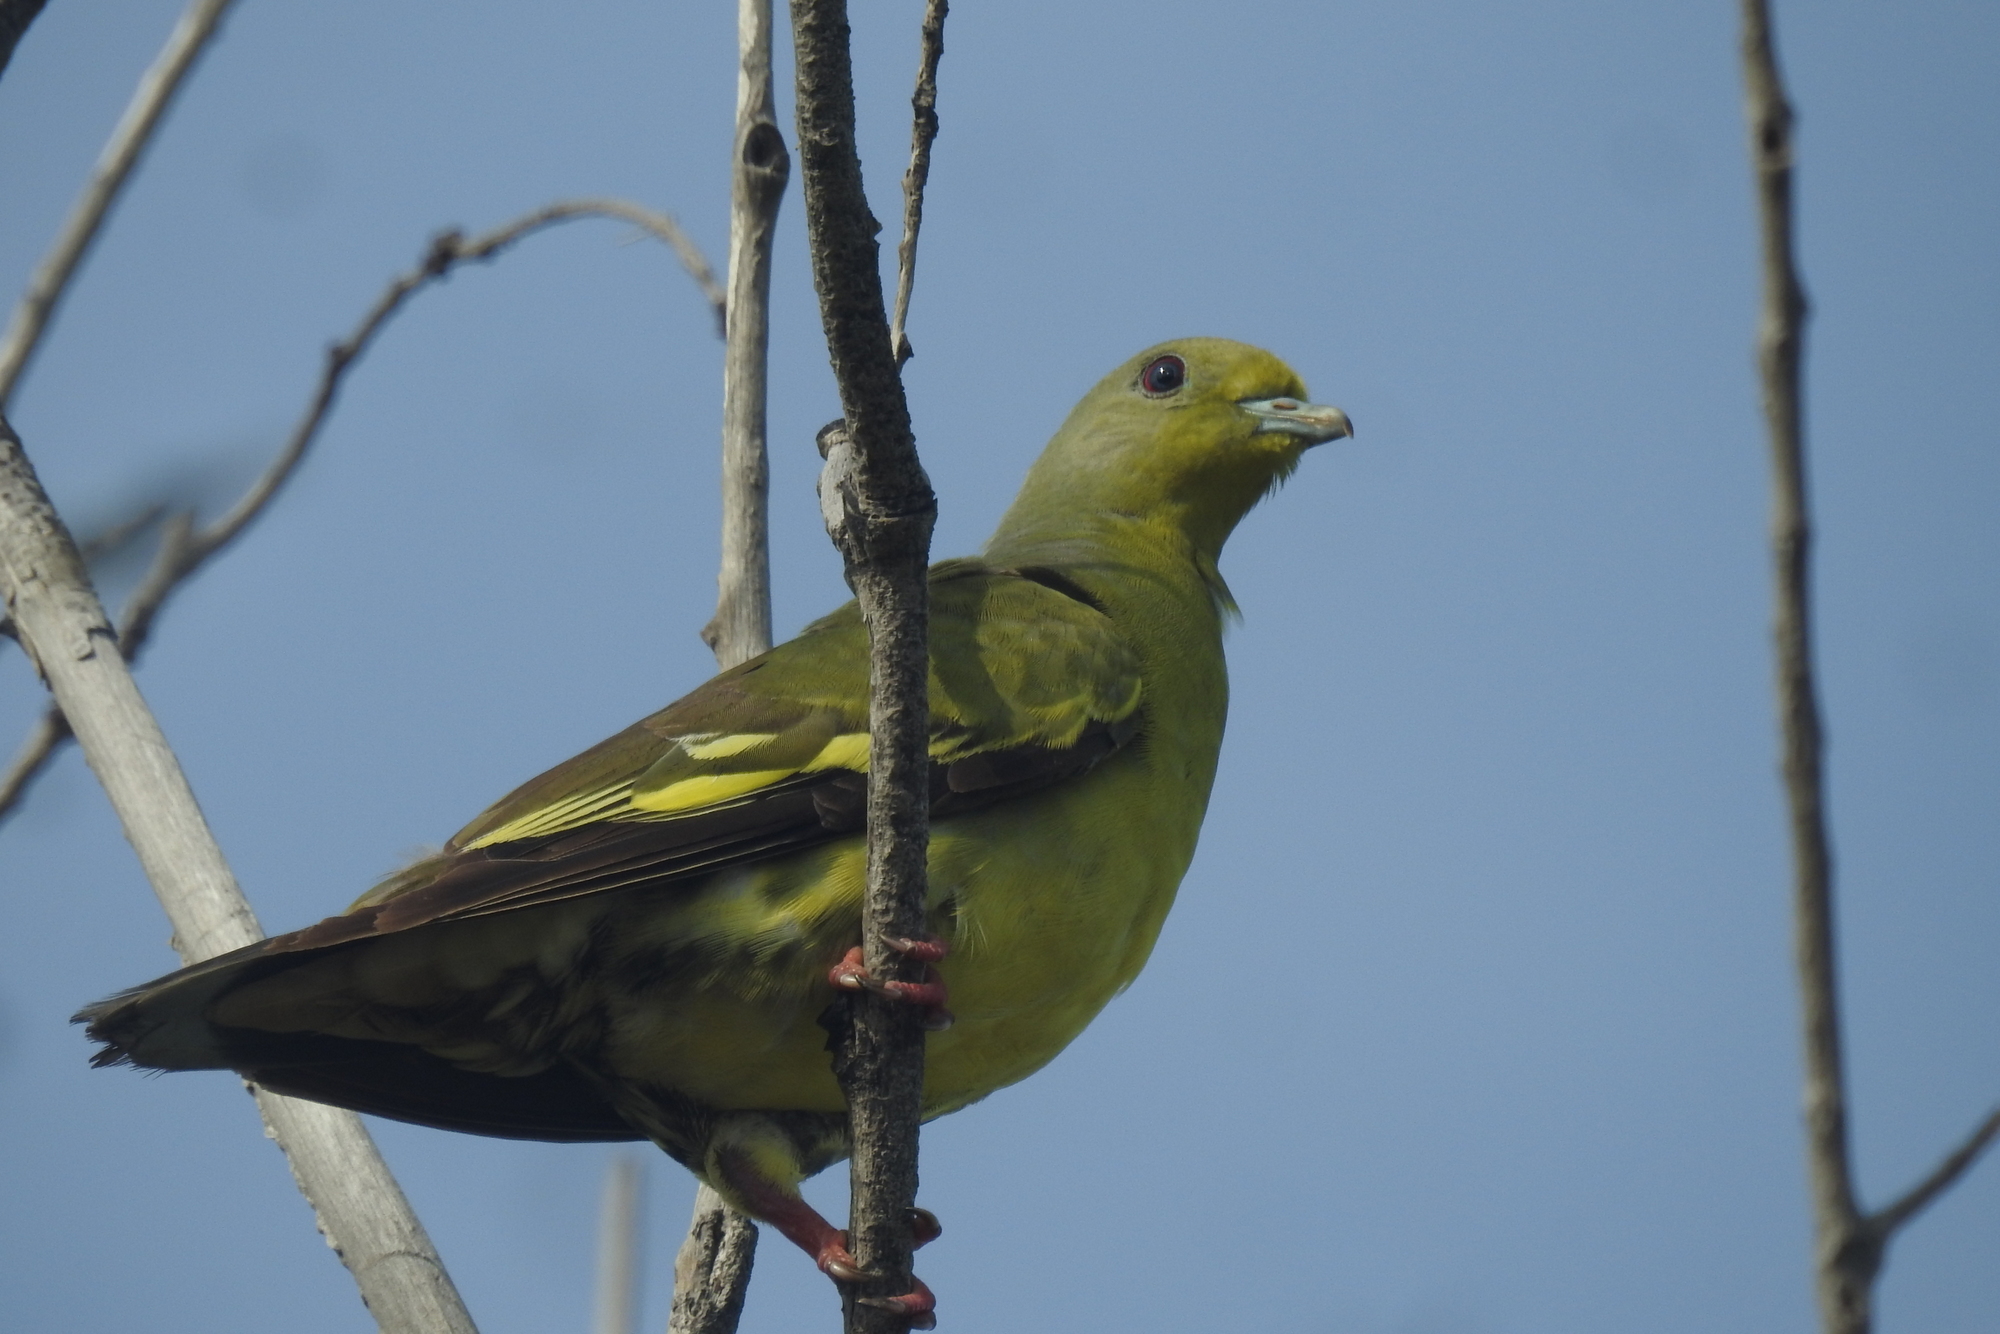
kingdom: Animalia
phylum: Chordata
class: Aves
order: Columbiformes
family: Columbidae
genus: Treron
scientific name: Treron bicinctus
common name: Orange-breasted green pigeon
